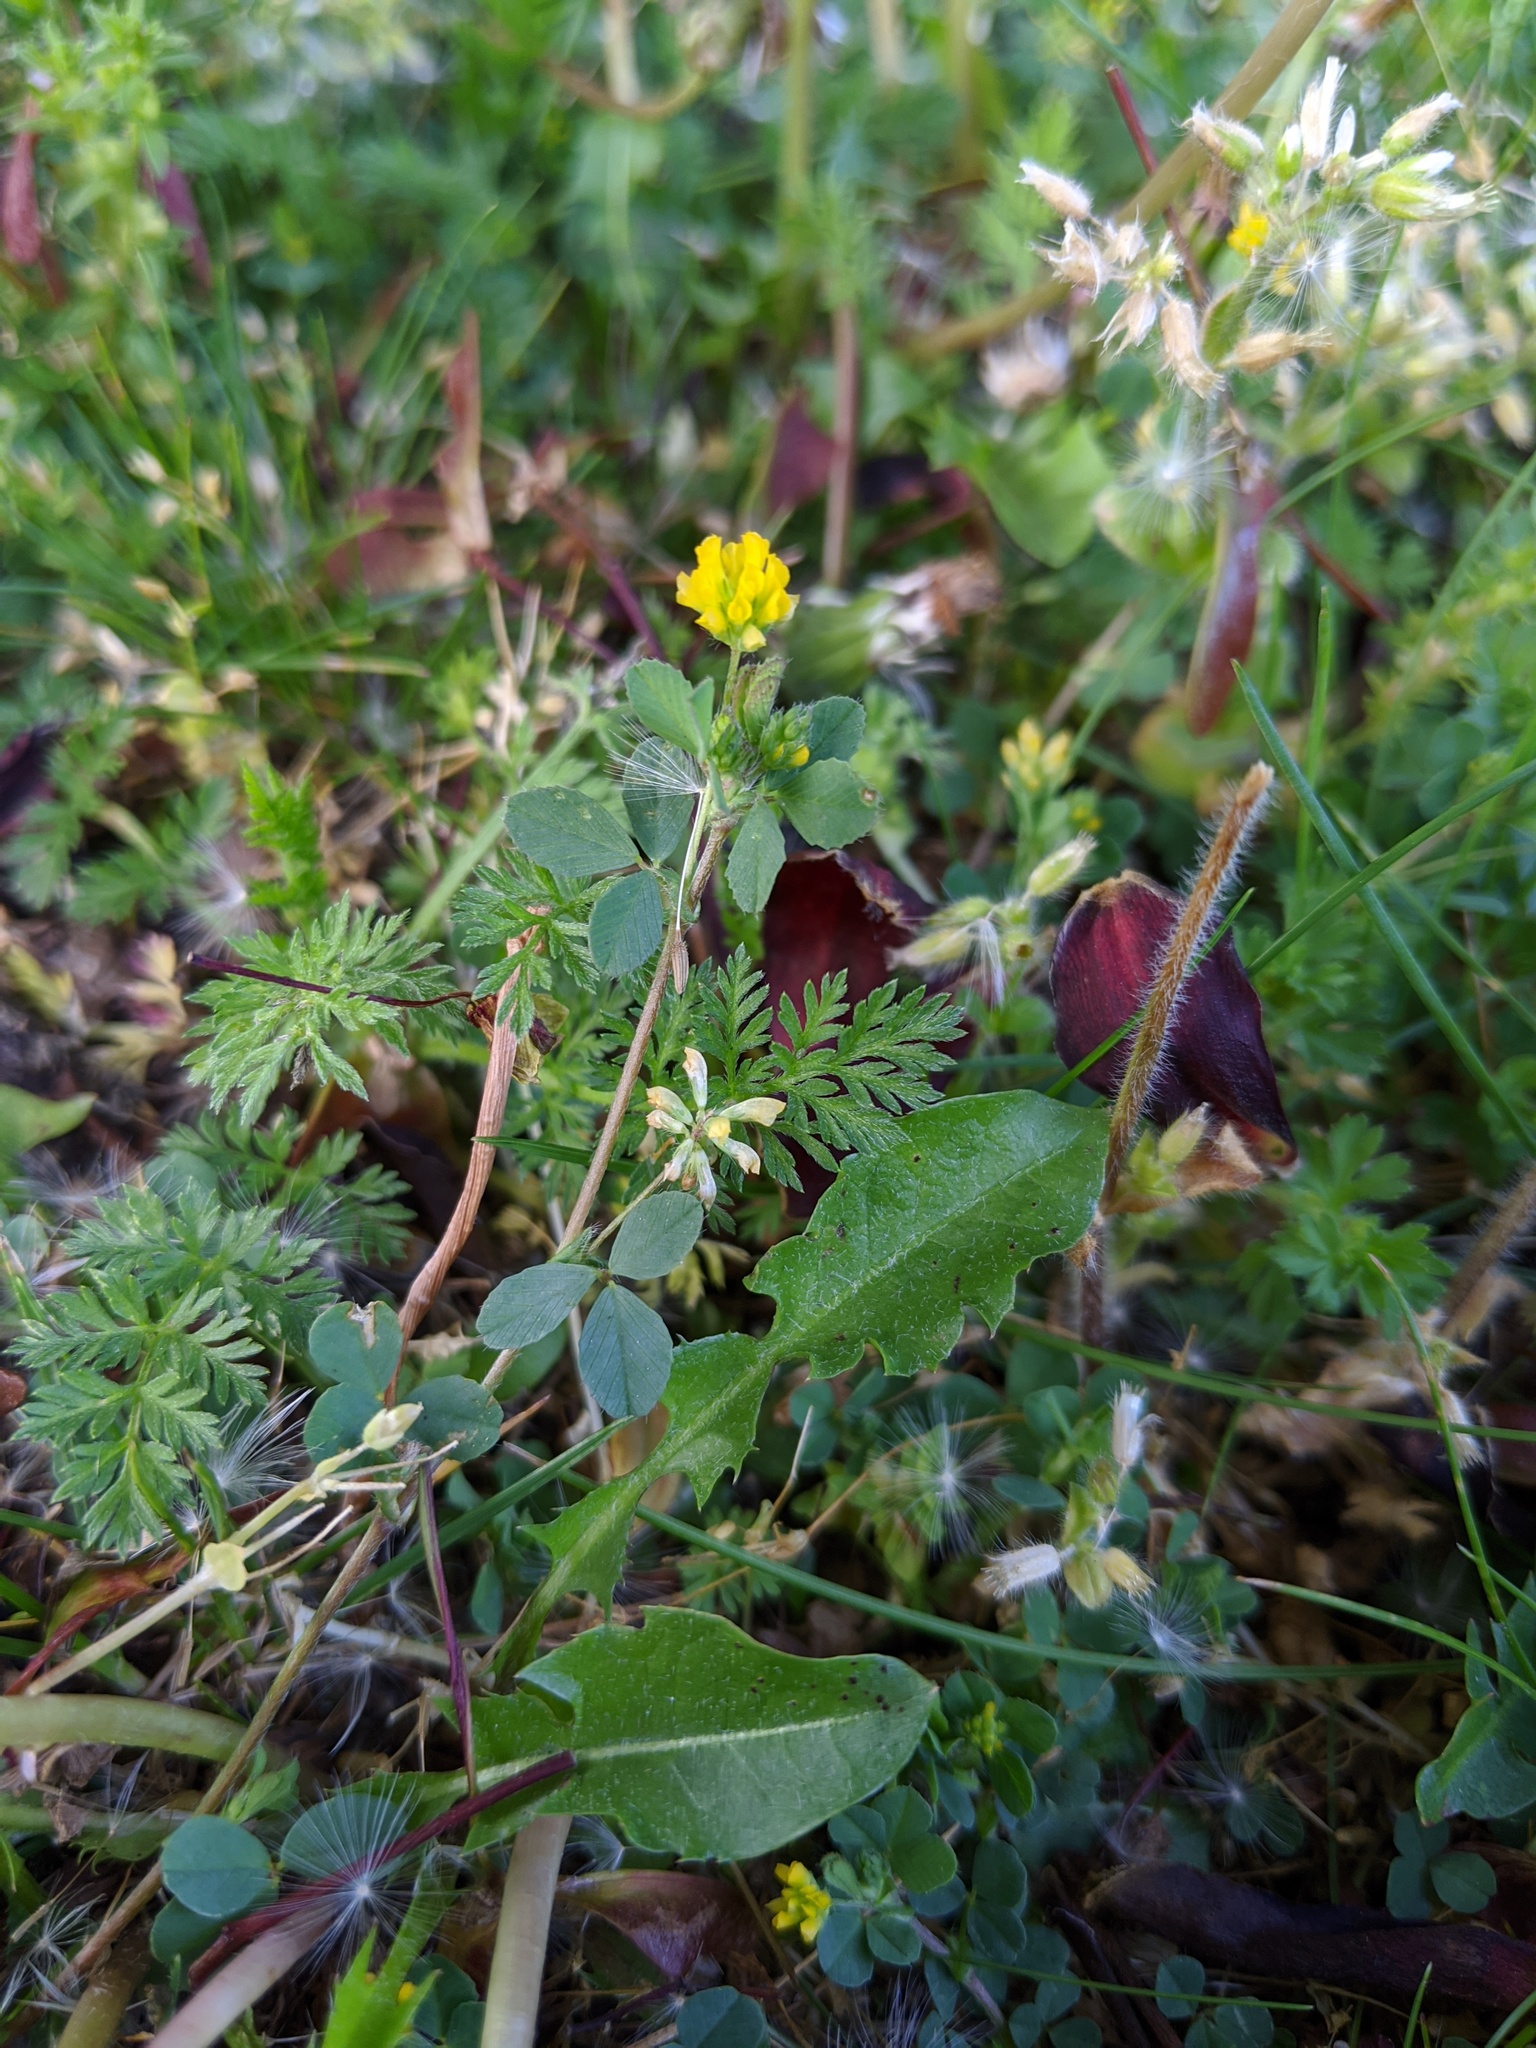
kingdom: Plantae
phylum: Tracheophyta
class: Magnoliopsida
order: Fabales
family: Fabaceae
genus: Trifolium
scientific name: Trifolium dubium
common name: Suckling clover
